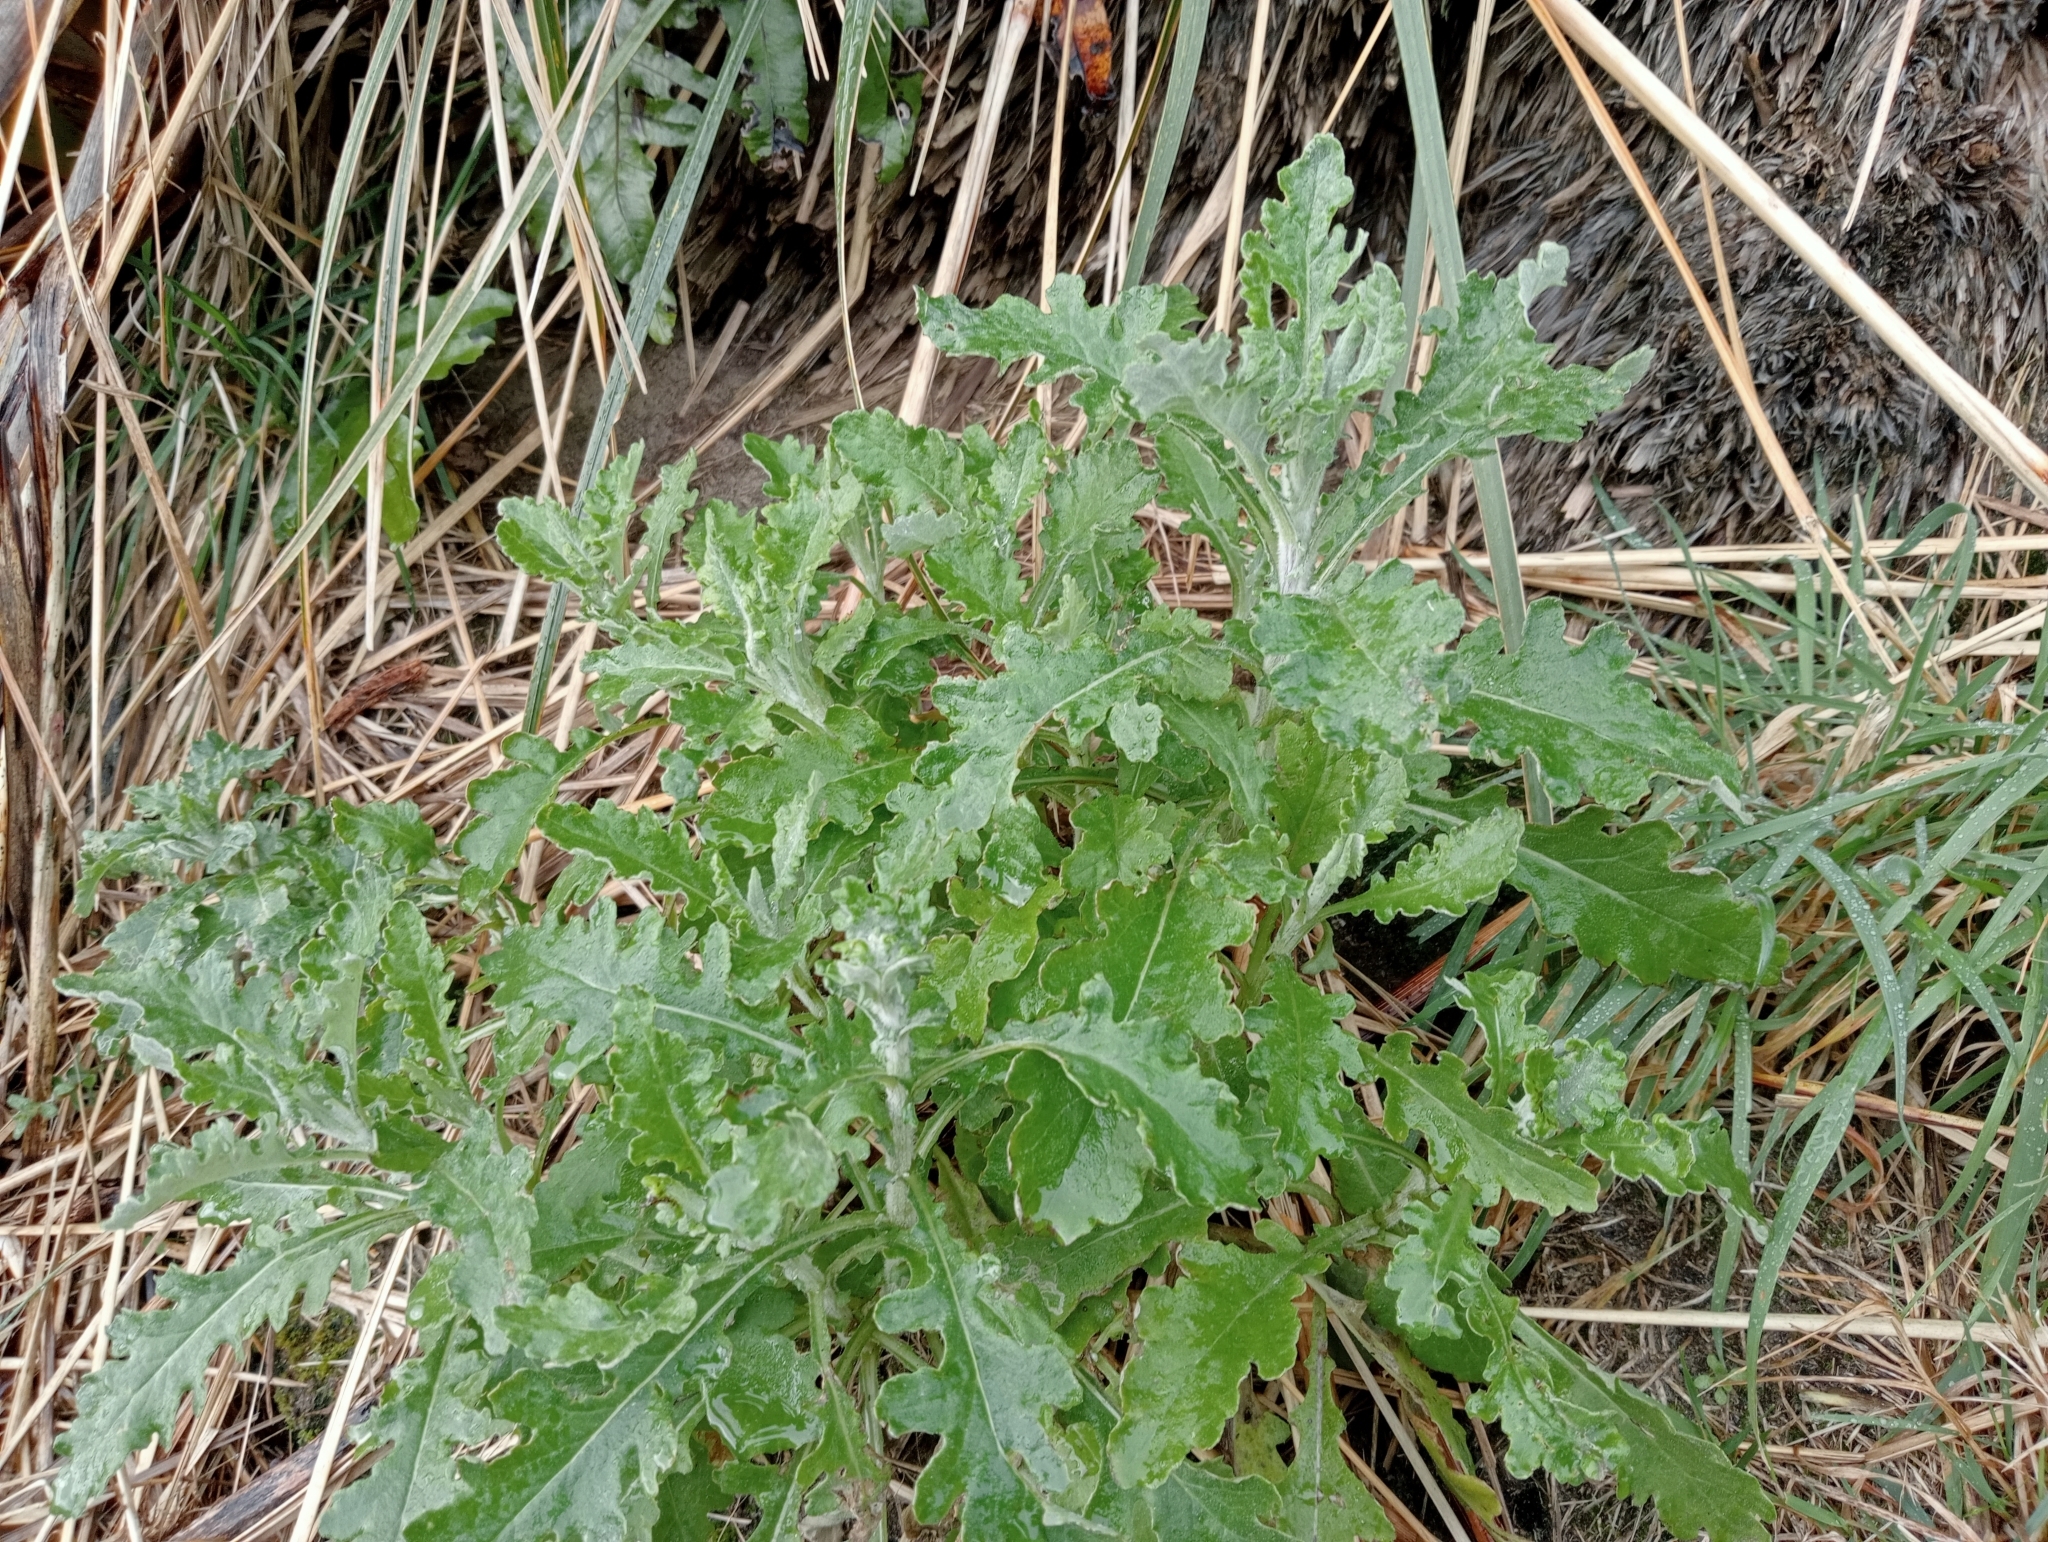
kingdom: Plantae
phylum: Tracheophyta
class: Magnoliopsida
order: Asterales
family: Asteraceae
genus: Senecio
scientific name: Senecio glomeratus
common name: Cutleaf burnweed
